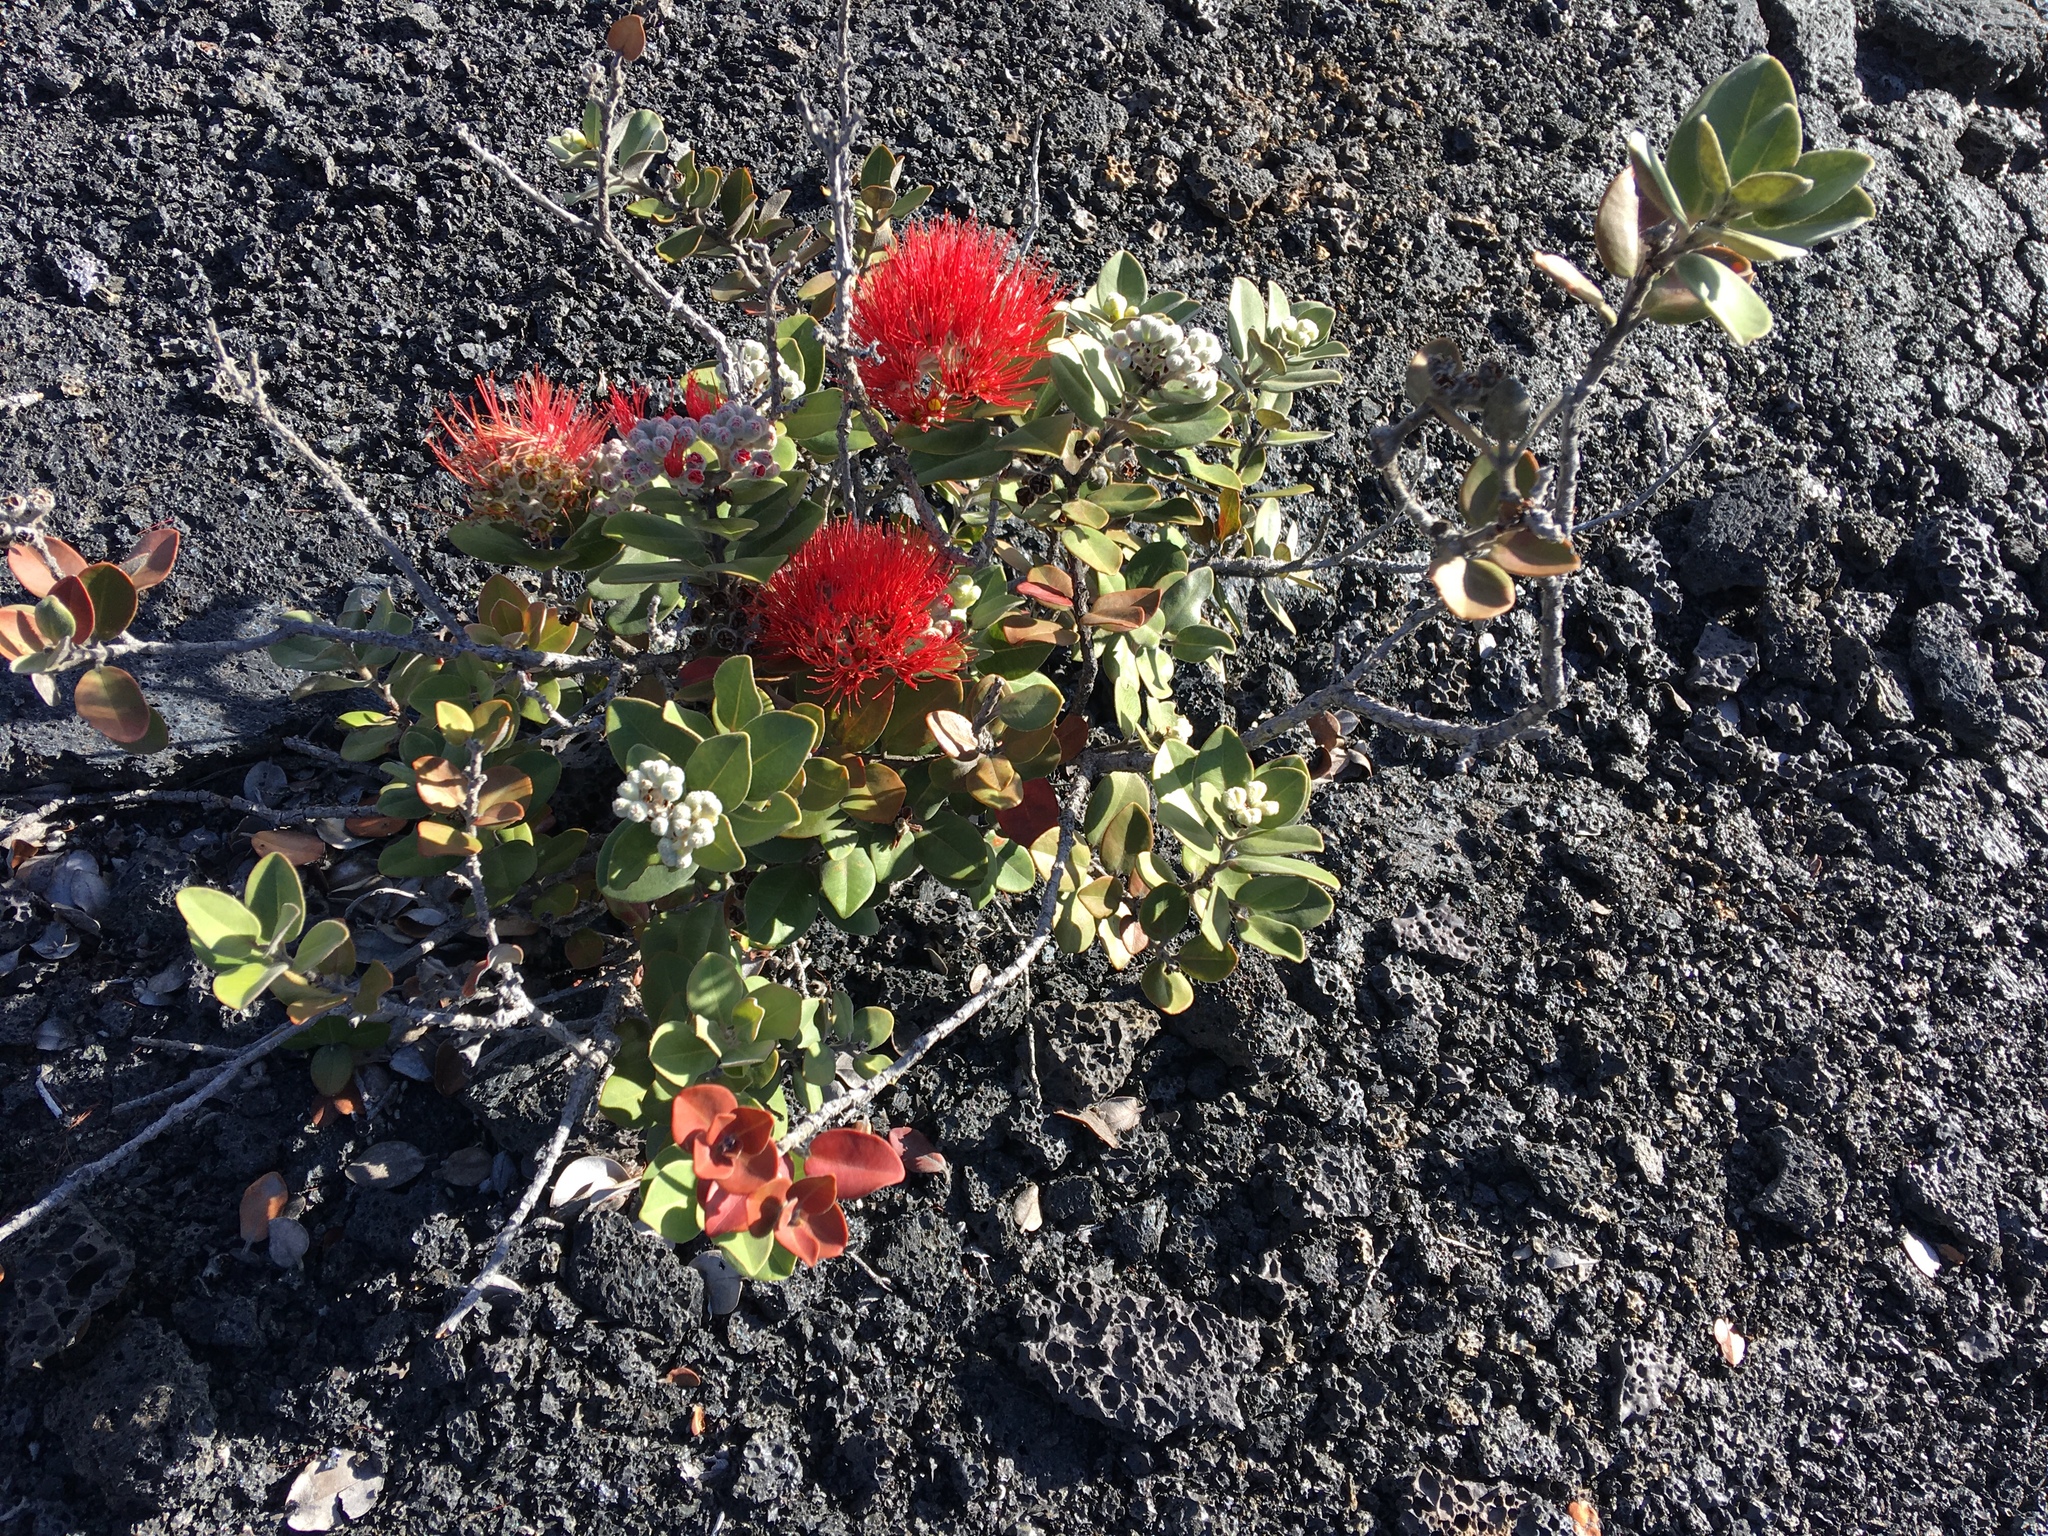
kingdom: Plantae
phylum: Tracheophyta
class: Magnoliopsida
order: Myrtales
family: Myrtaceae
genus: Metrosideros
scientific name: Metrosideros polymorpha
